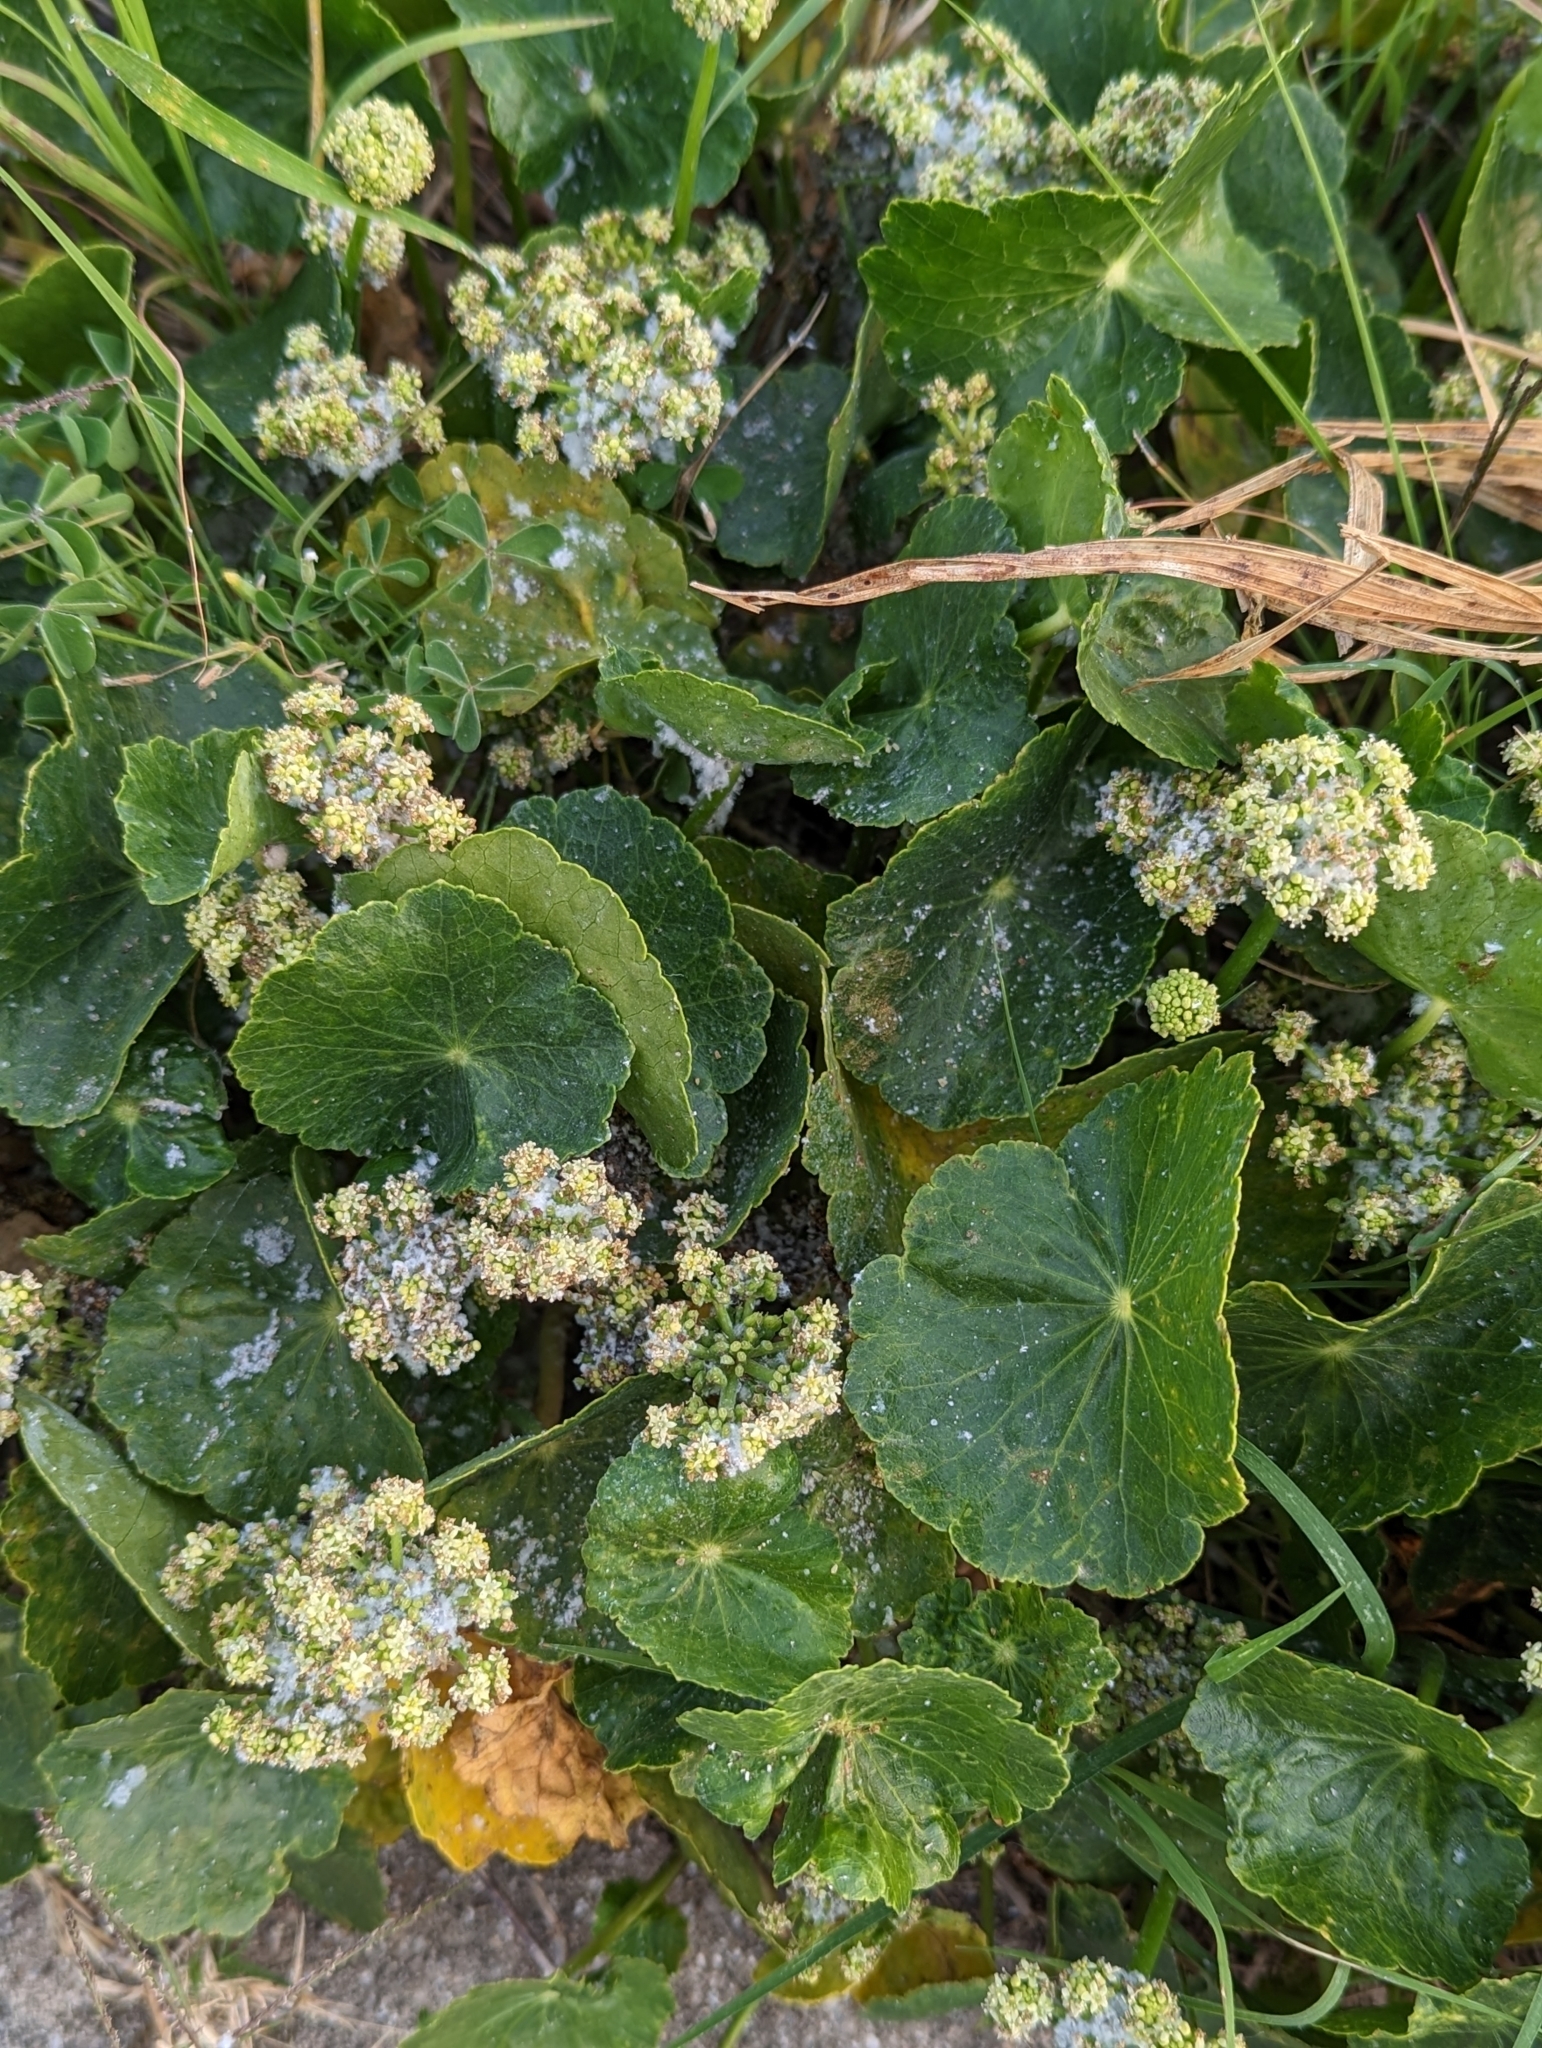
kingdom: Plantae
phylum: Tracheophyta
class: Magnoliopsida
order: Apiales
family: Araliaceae
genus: Hydrocotyle
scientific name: Hydrocotyle bonariensis
